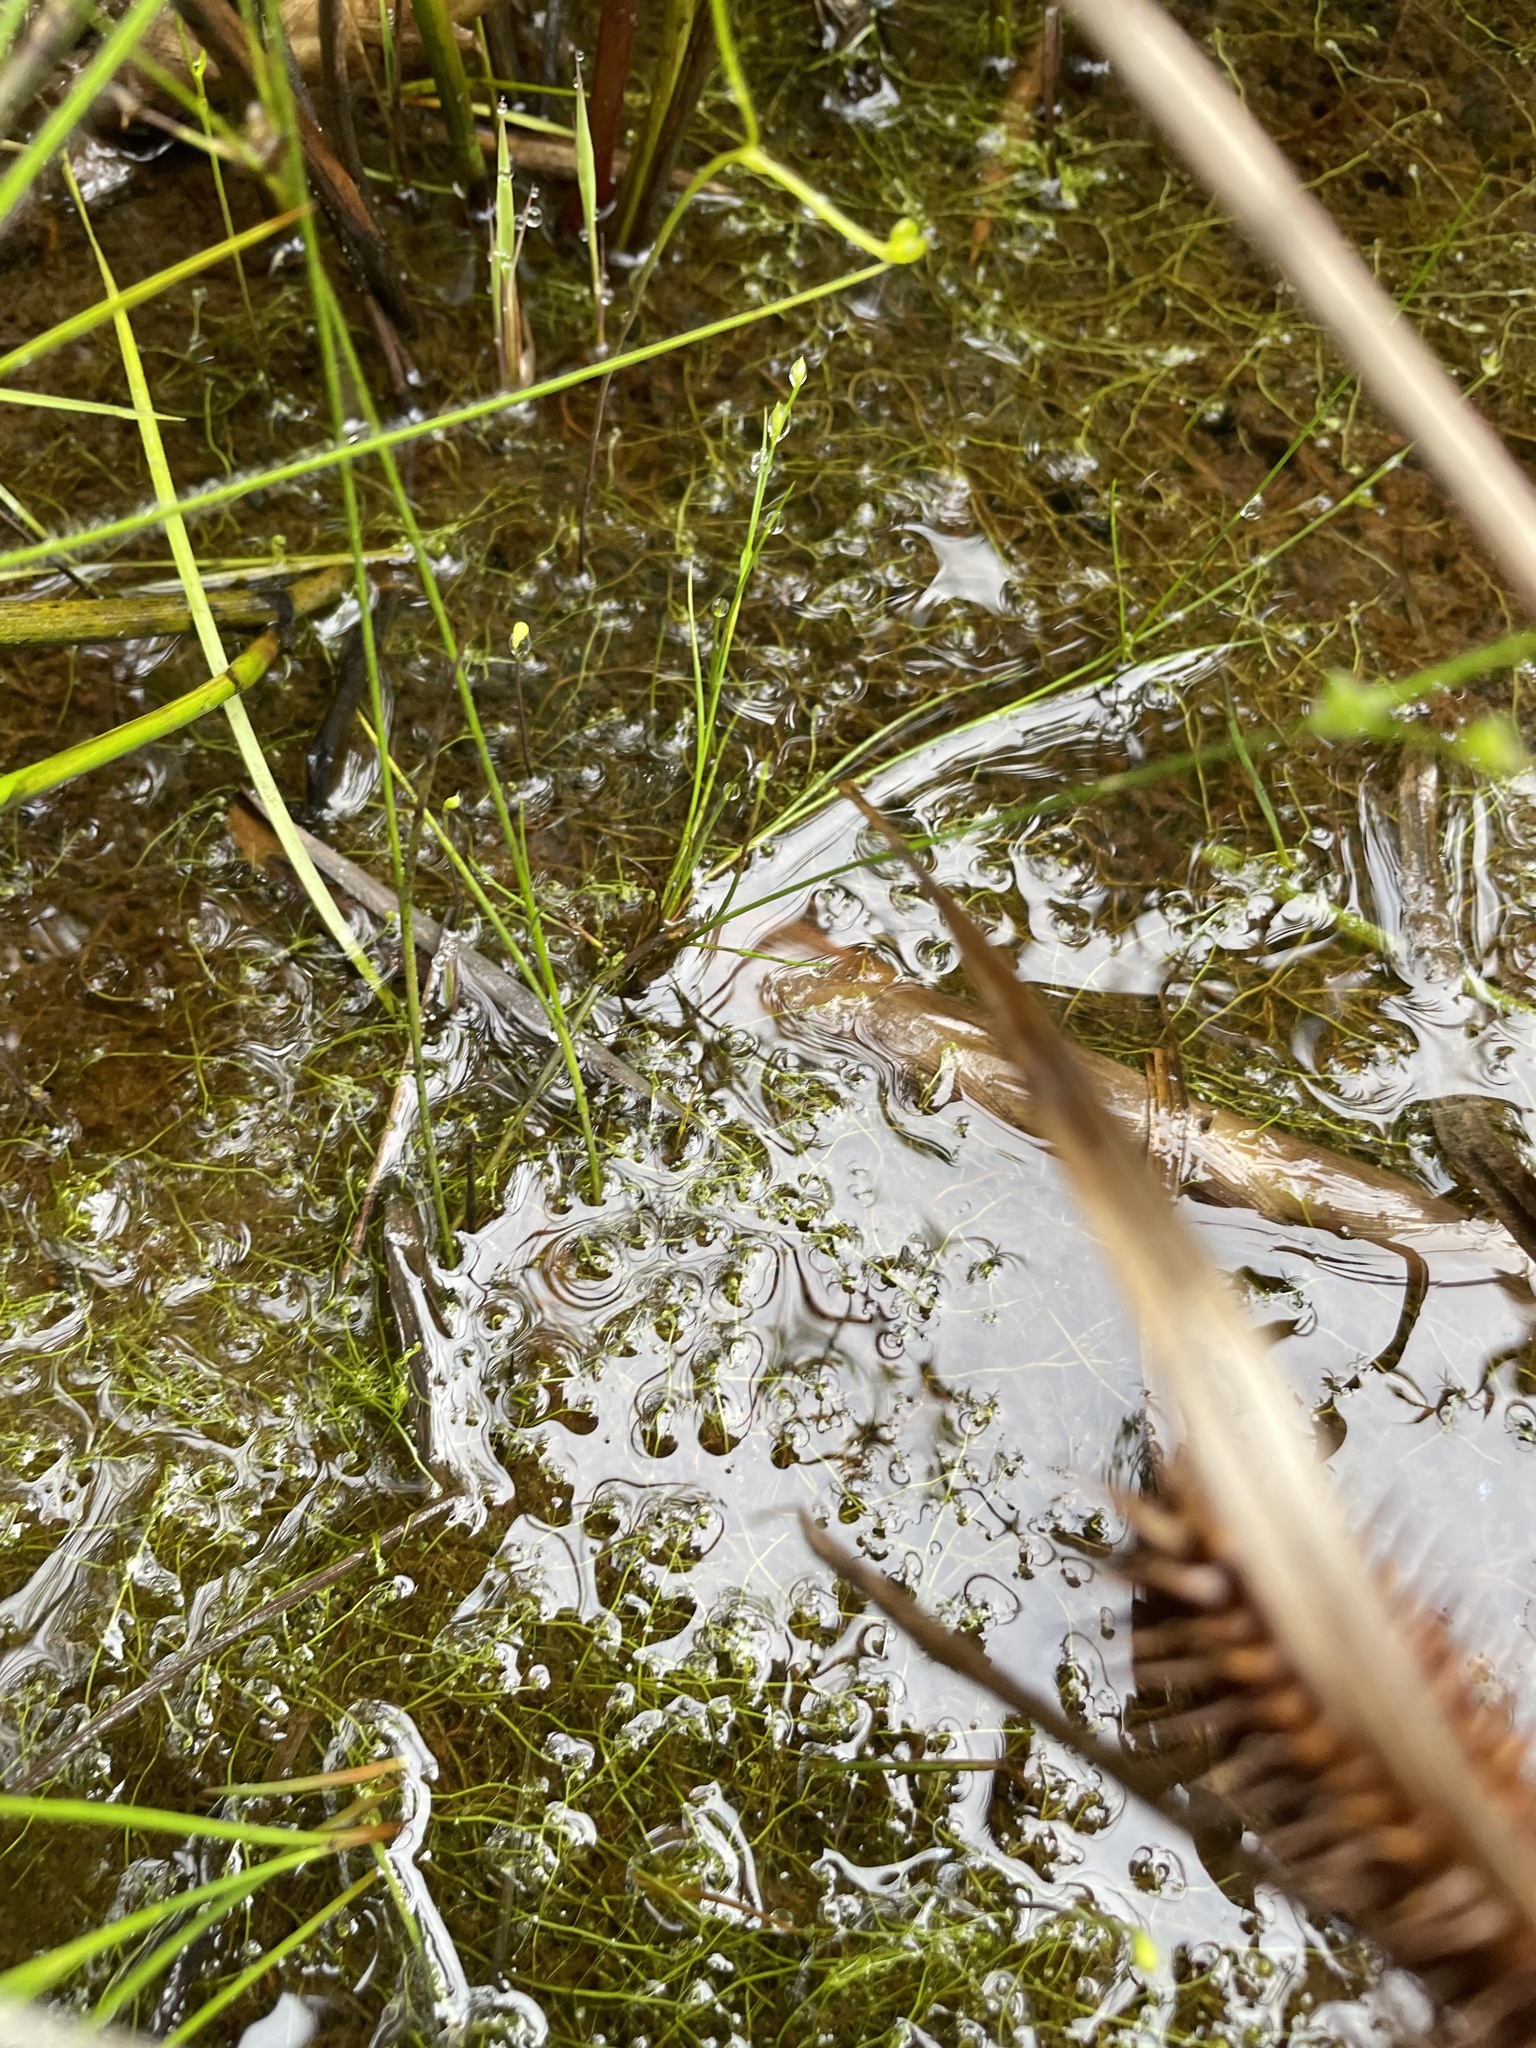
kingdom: Plantae
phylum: Tracheophyta
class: Magnoliopsida
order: Lamiales
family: Lentibulariaceae
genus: Utricularia
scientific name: Utricularia gibba
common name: Humped bladderwort
